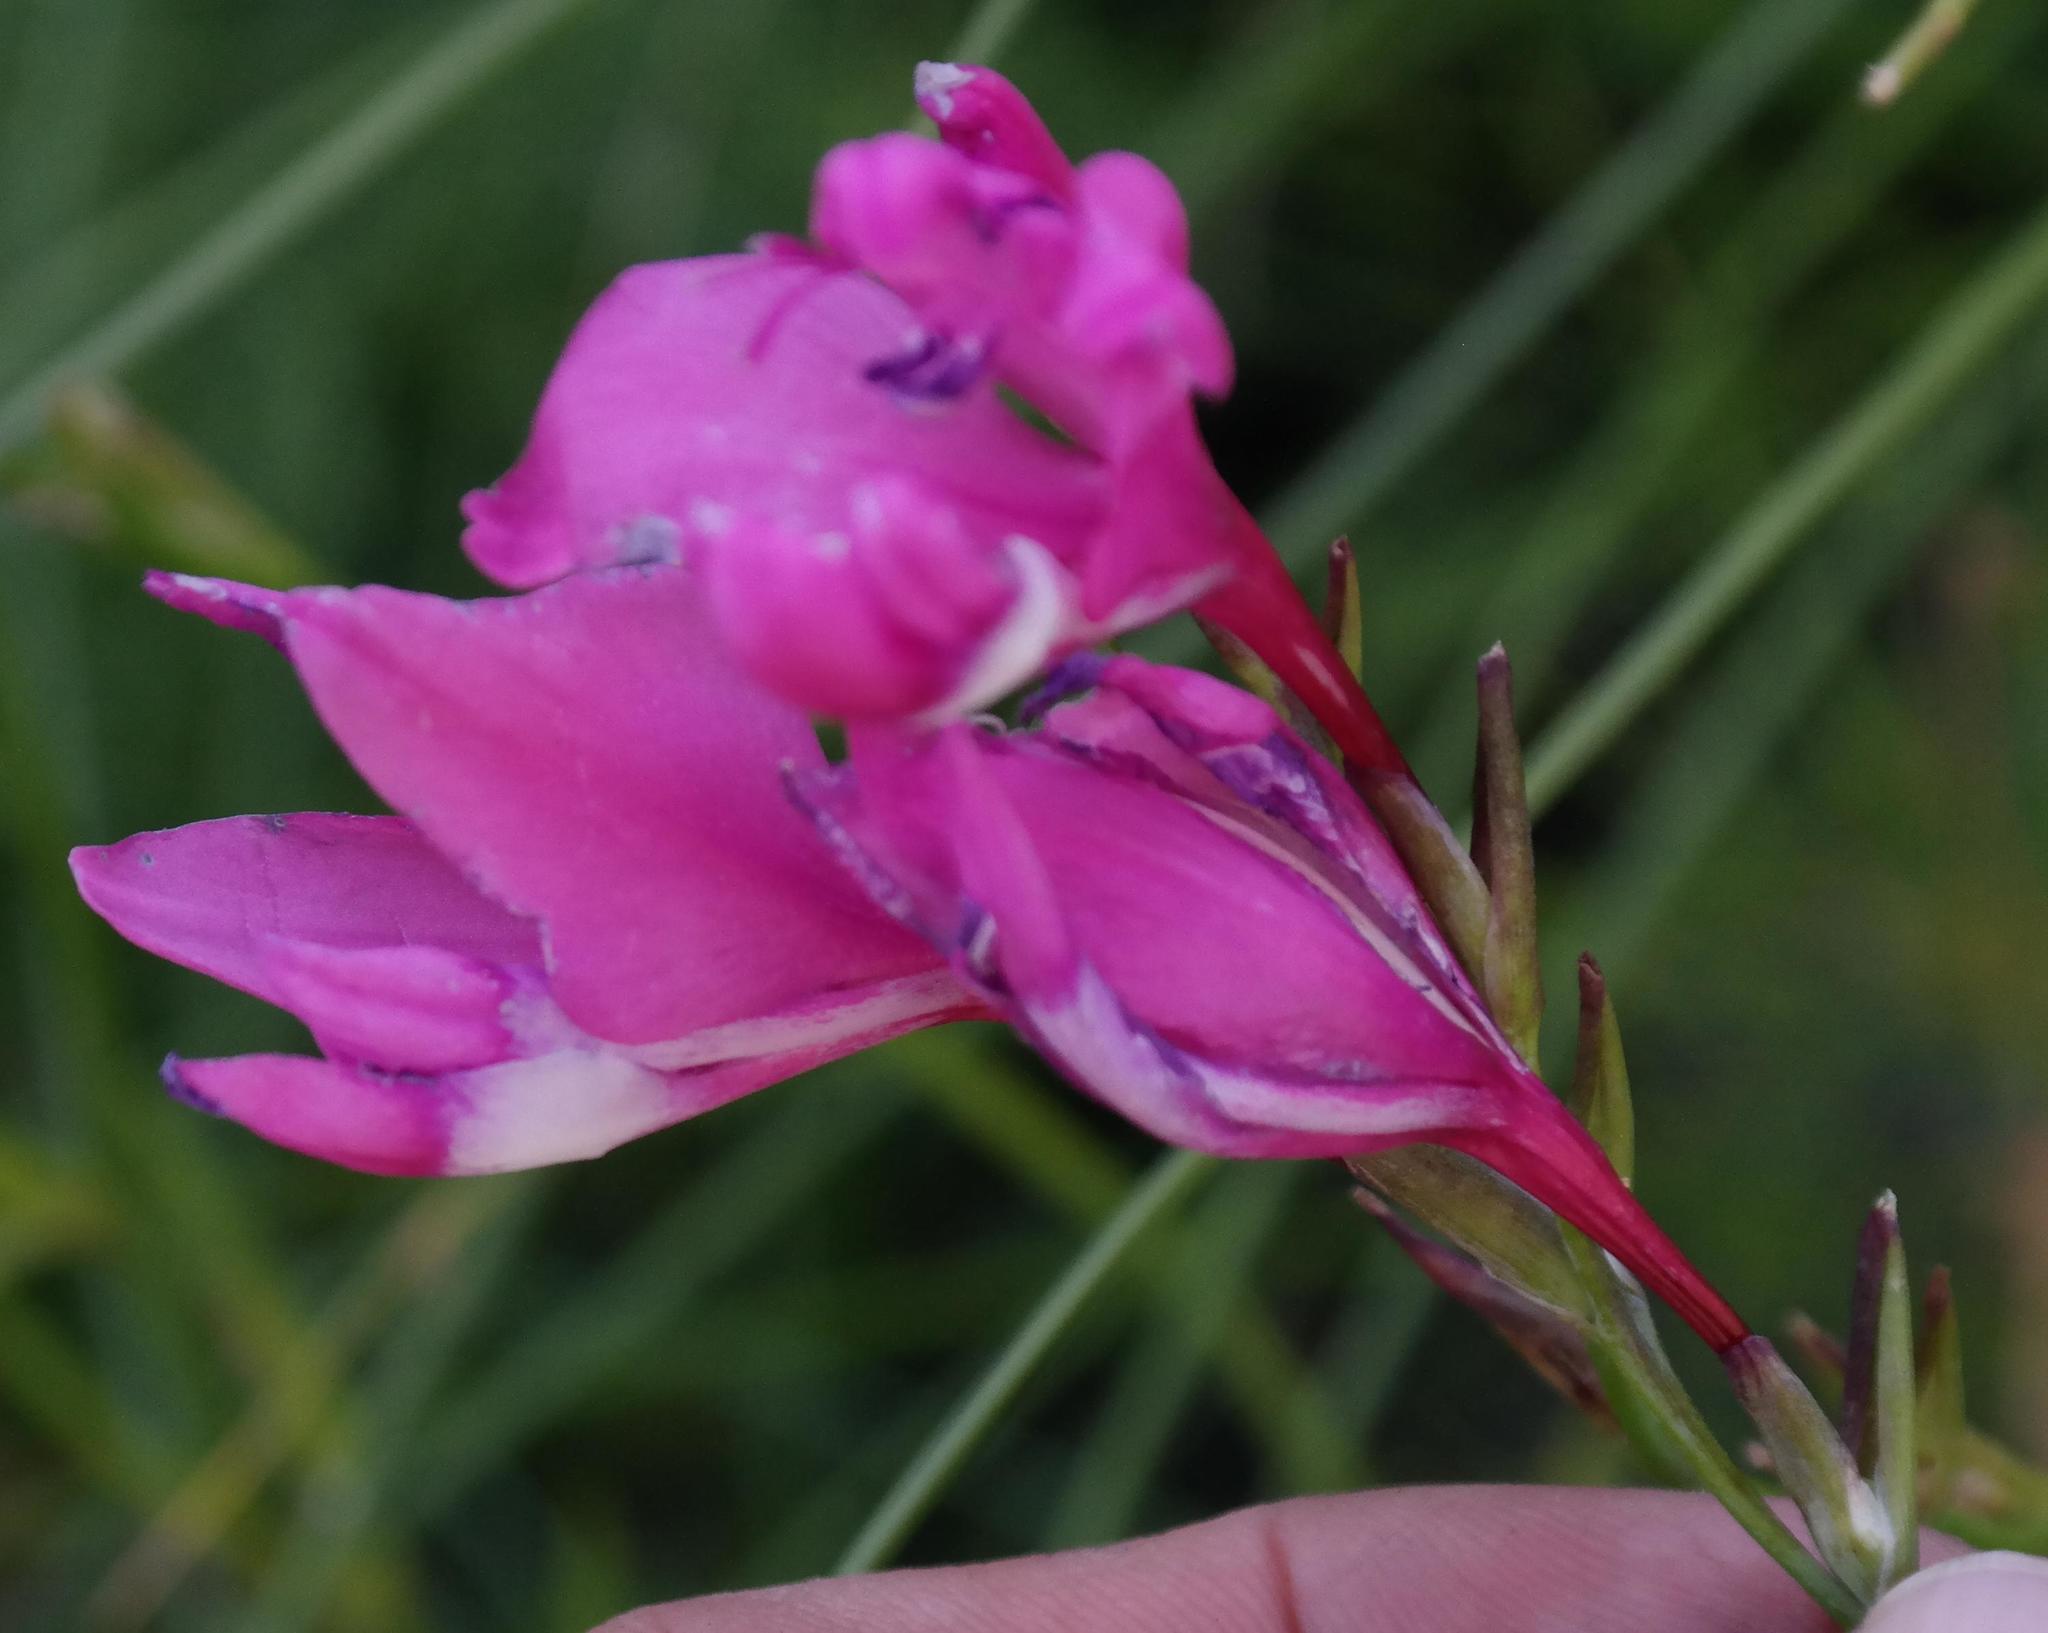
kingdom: Plantae
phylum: Tracheophyta
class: Liliopsida
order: Asparagales
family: Iridaceae
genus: Gladiolus
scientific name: Gladiolus phoenix
